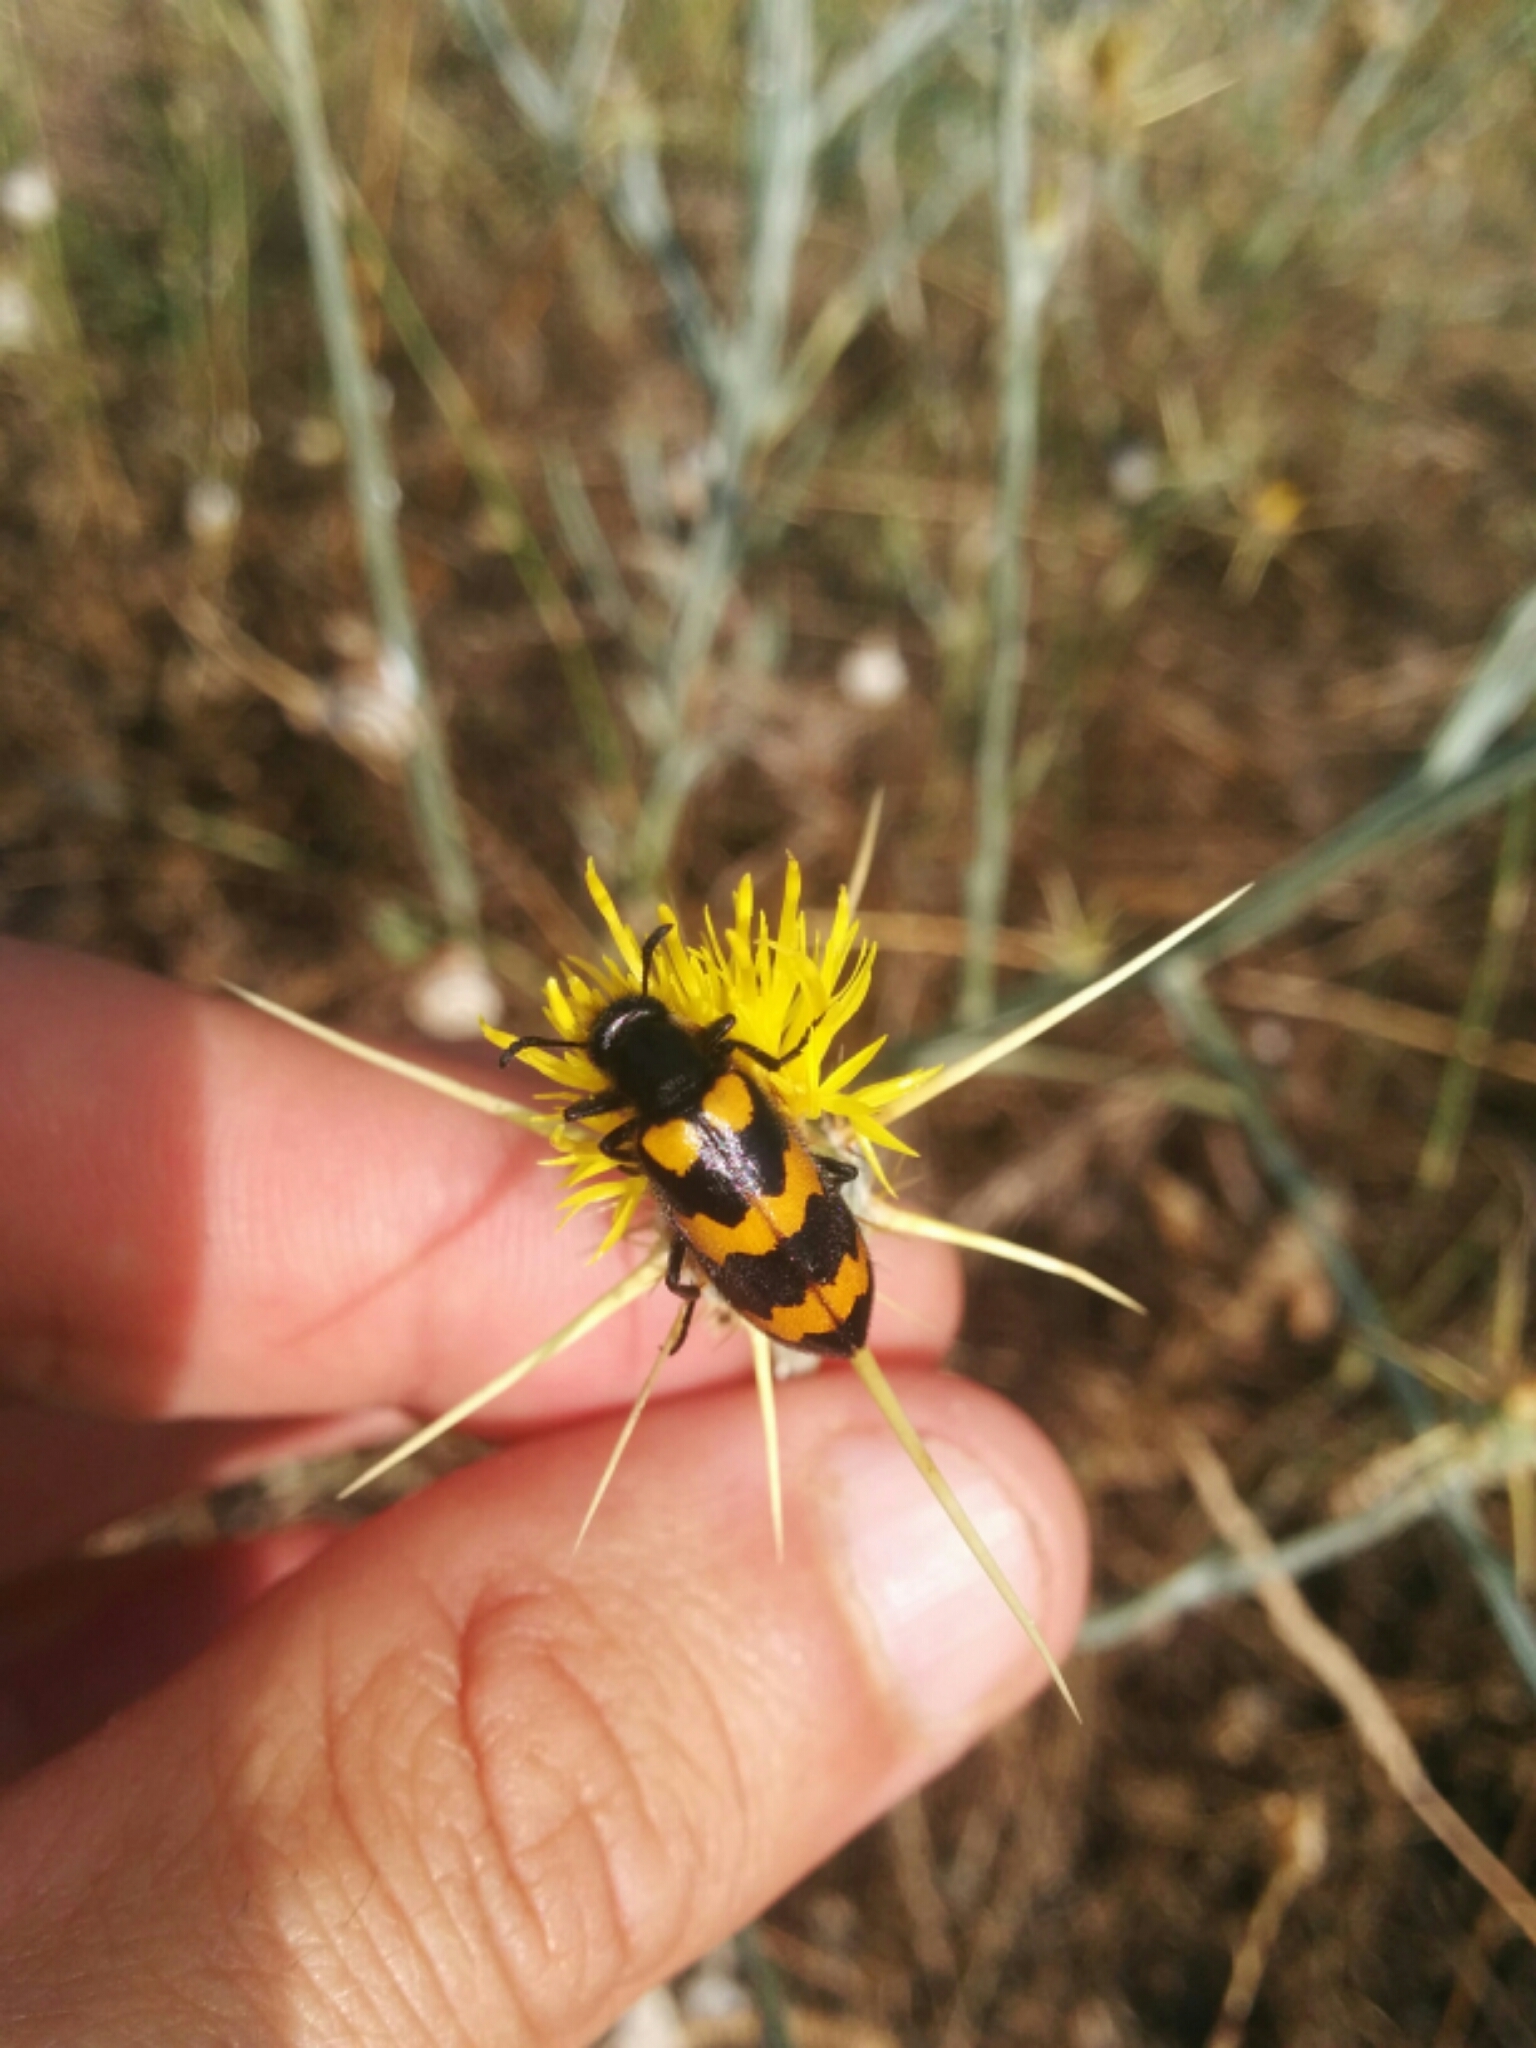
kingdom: Animalia
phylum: Arthropoda
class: Insecta
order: Coleoptera
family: Meloidae
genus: Mylabris
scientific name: Mylabris variabilis
